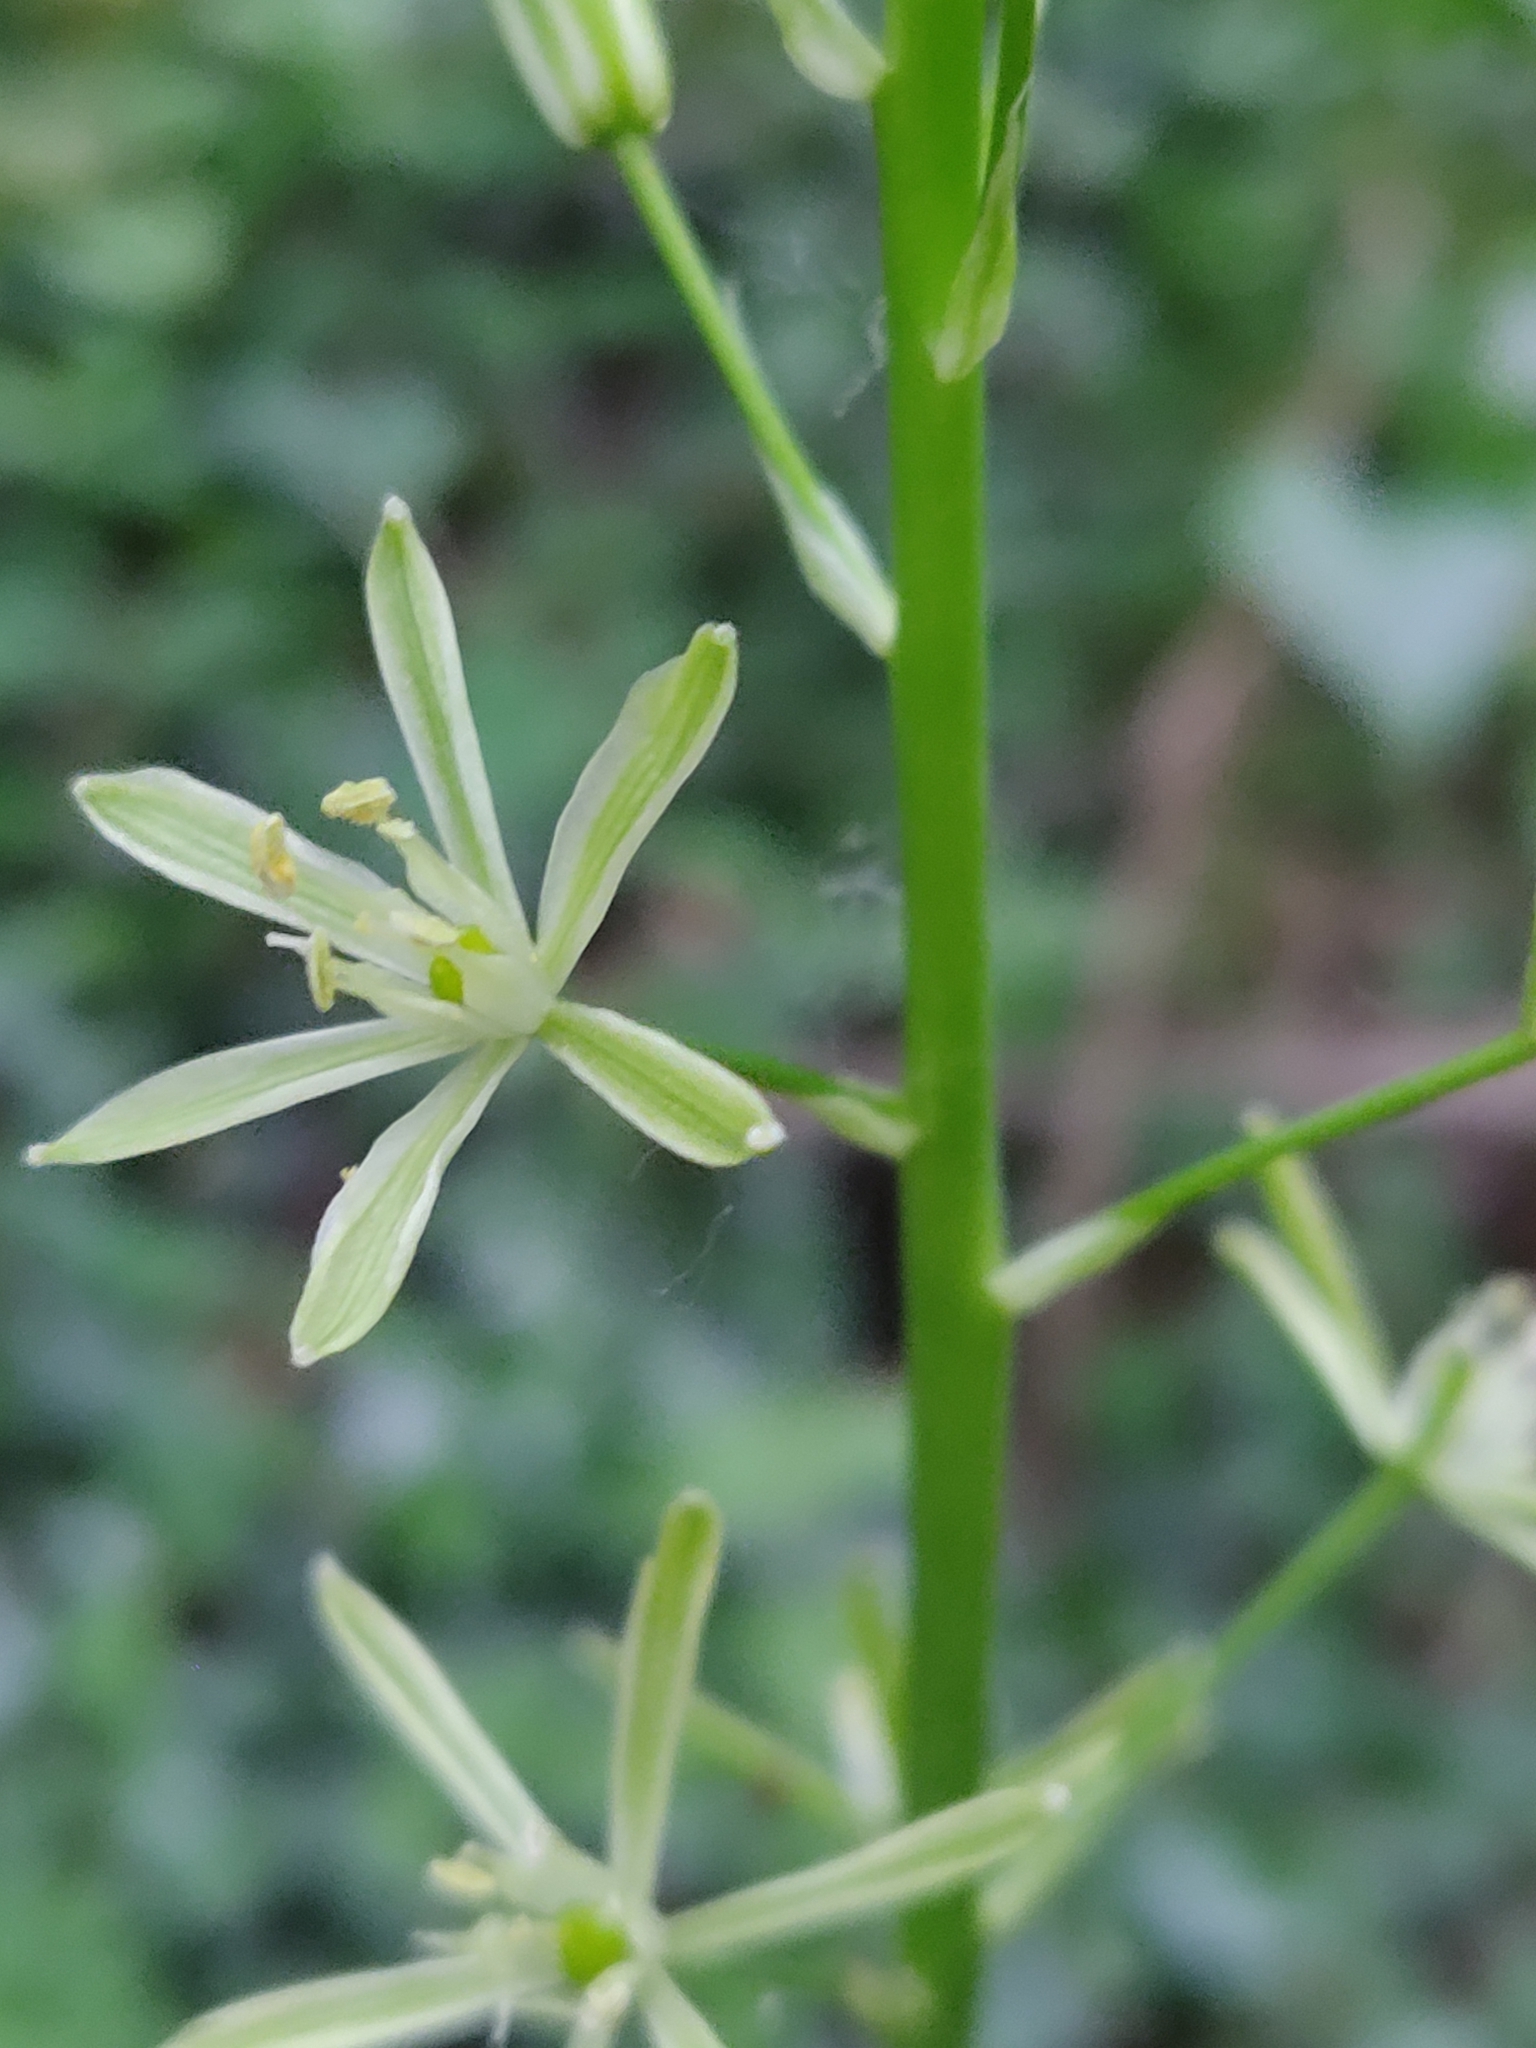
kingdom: Plantae
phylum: Tracheophyta
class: Liliopsida
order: Asparagales
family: Asparagaceae
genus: Ornithogalum
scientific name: Ornithogalum pyrenaicum
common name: Spiked star-of-bethlehem
